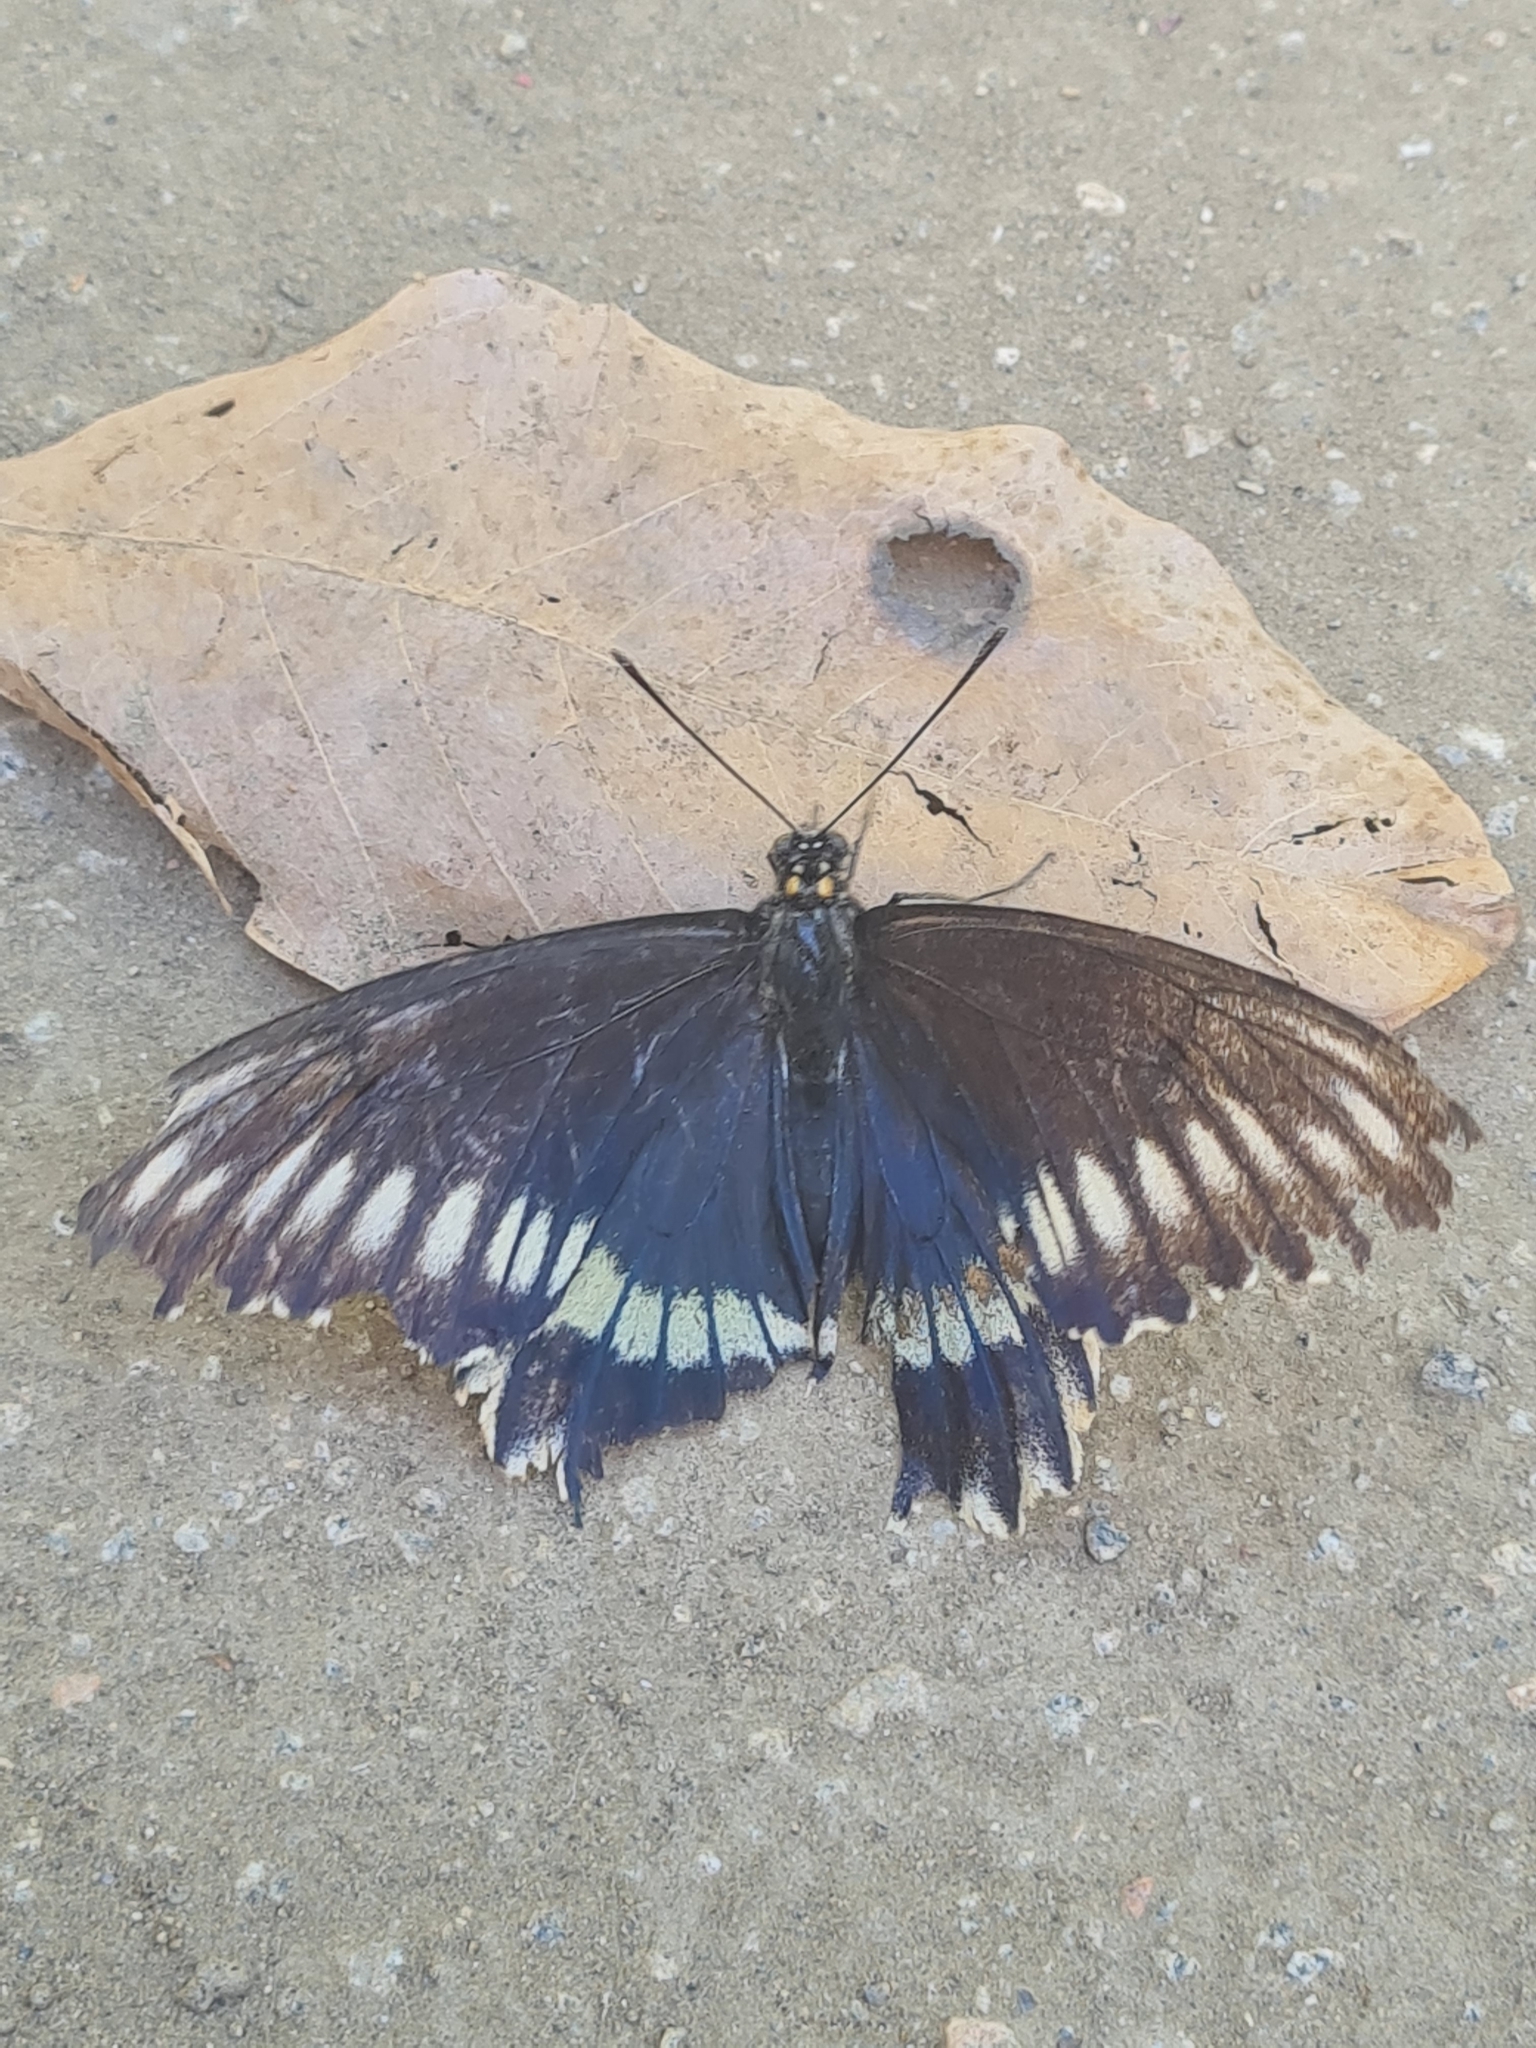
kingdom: Animalia
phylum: Arthropoda
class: Insecta
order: Lepidoptera
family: Papilionidae
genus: Battus
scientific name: Battus polydamas
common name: Polydamas swallowtail
